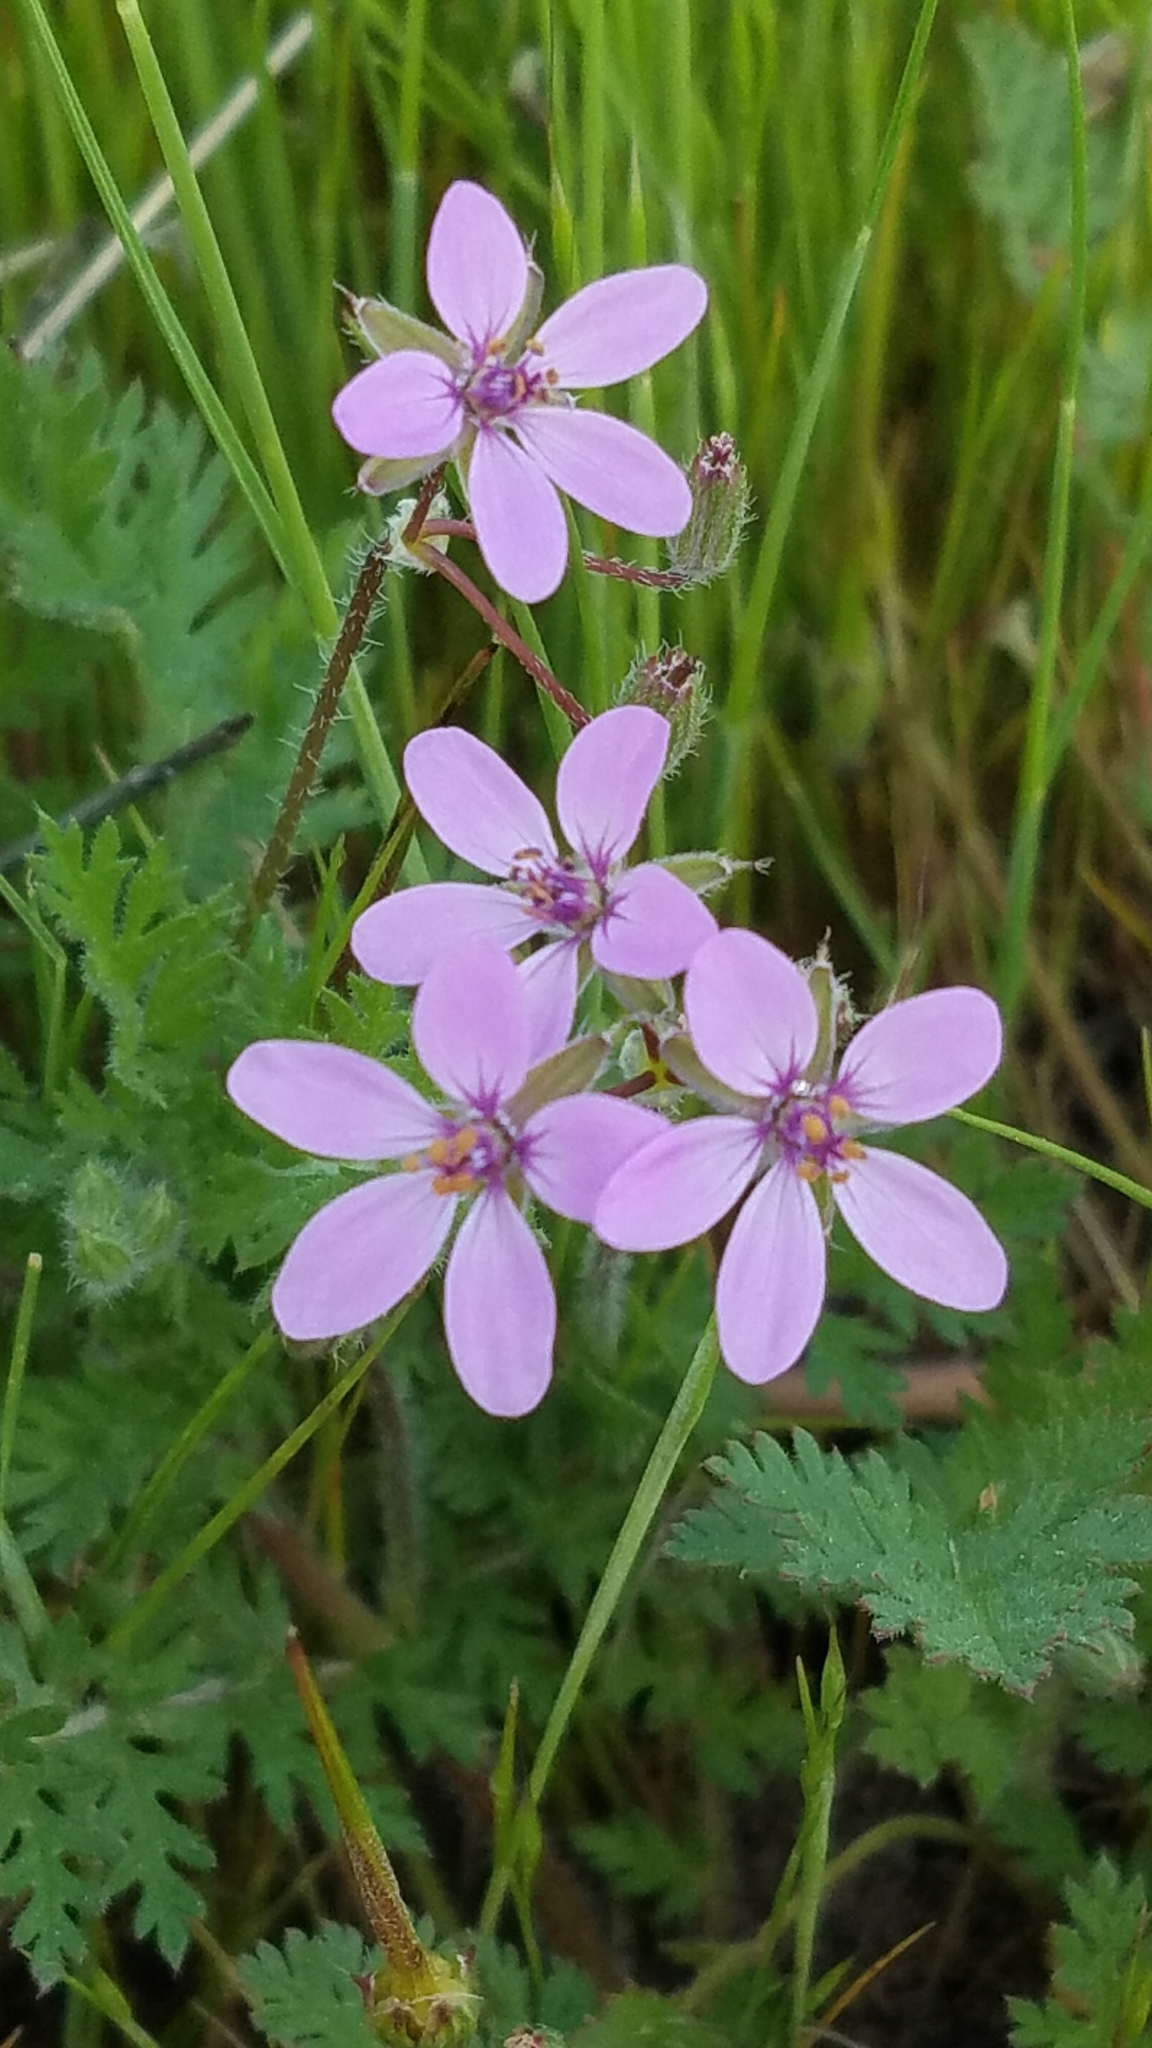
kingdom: Plantae
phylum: Tracheophyta
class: Magnoliopsida
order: Geraniales
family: Geraniaceae
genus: Erodium
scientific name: Erodium cicutarium
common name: Common stork's-bill
